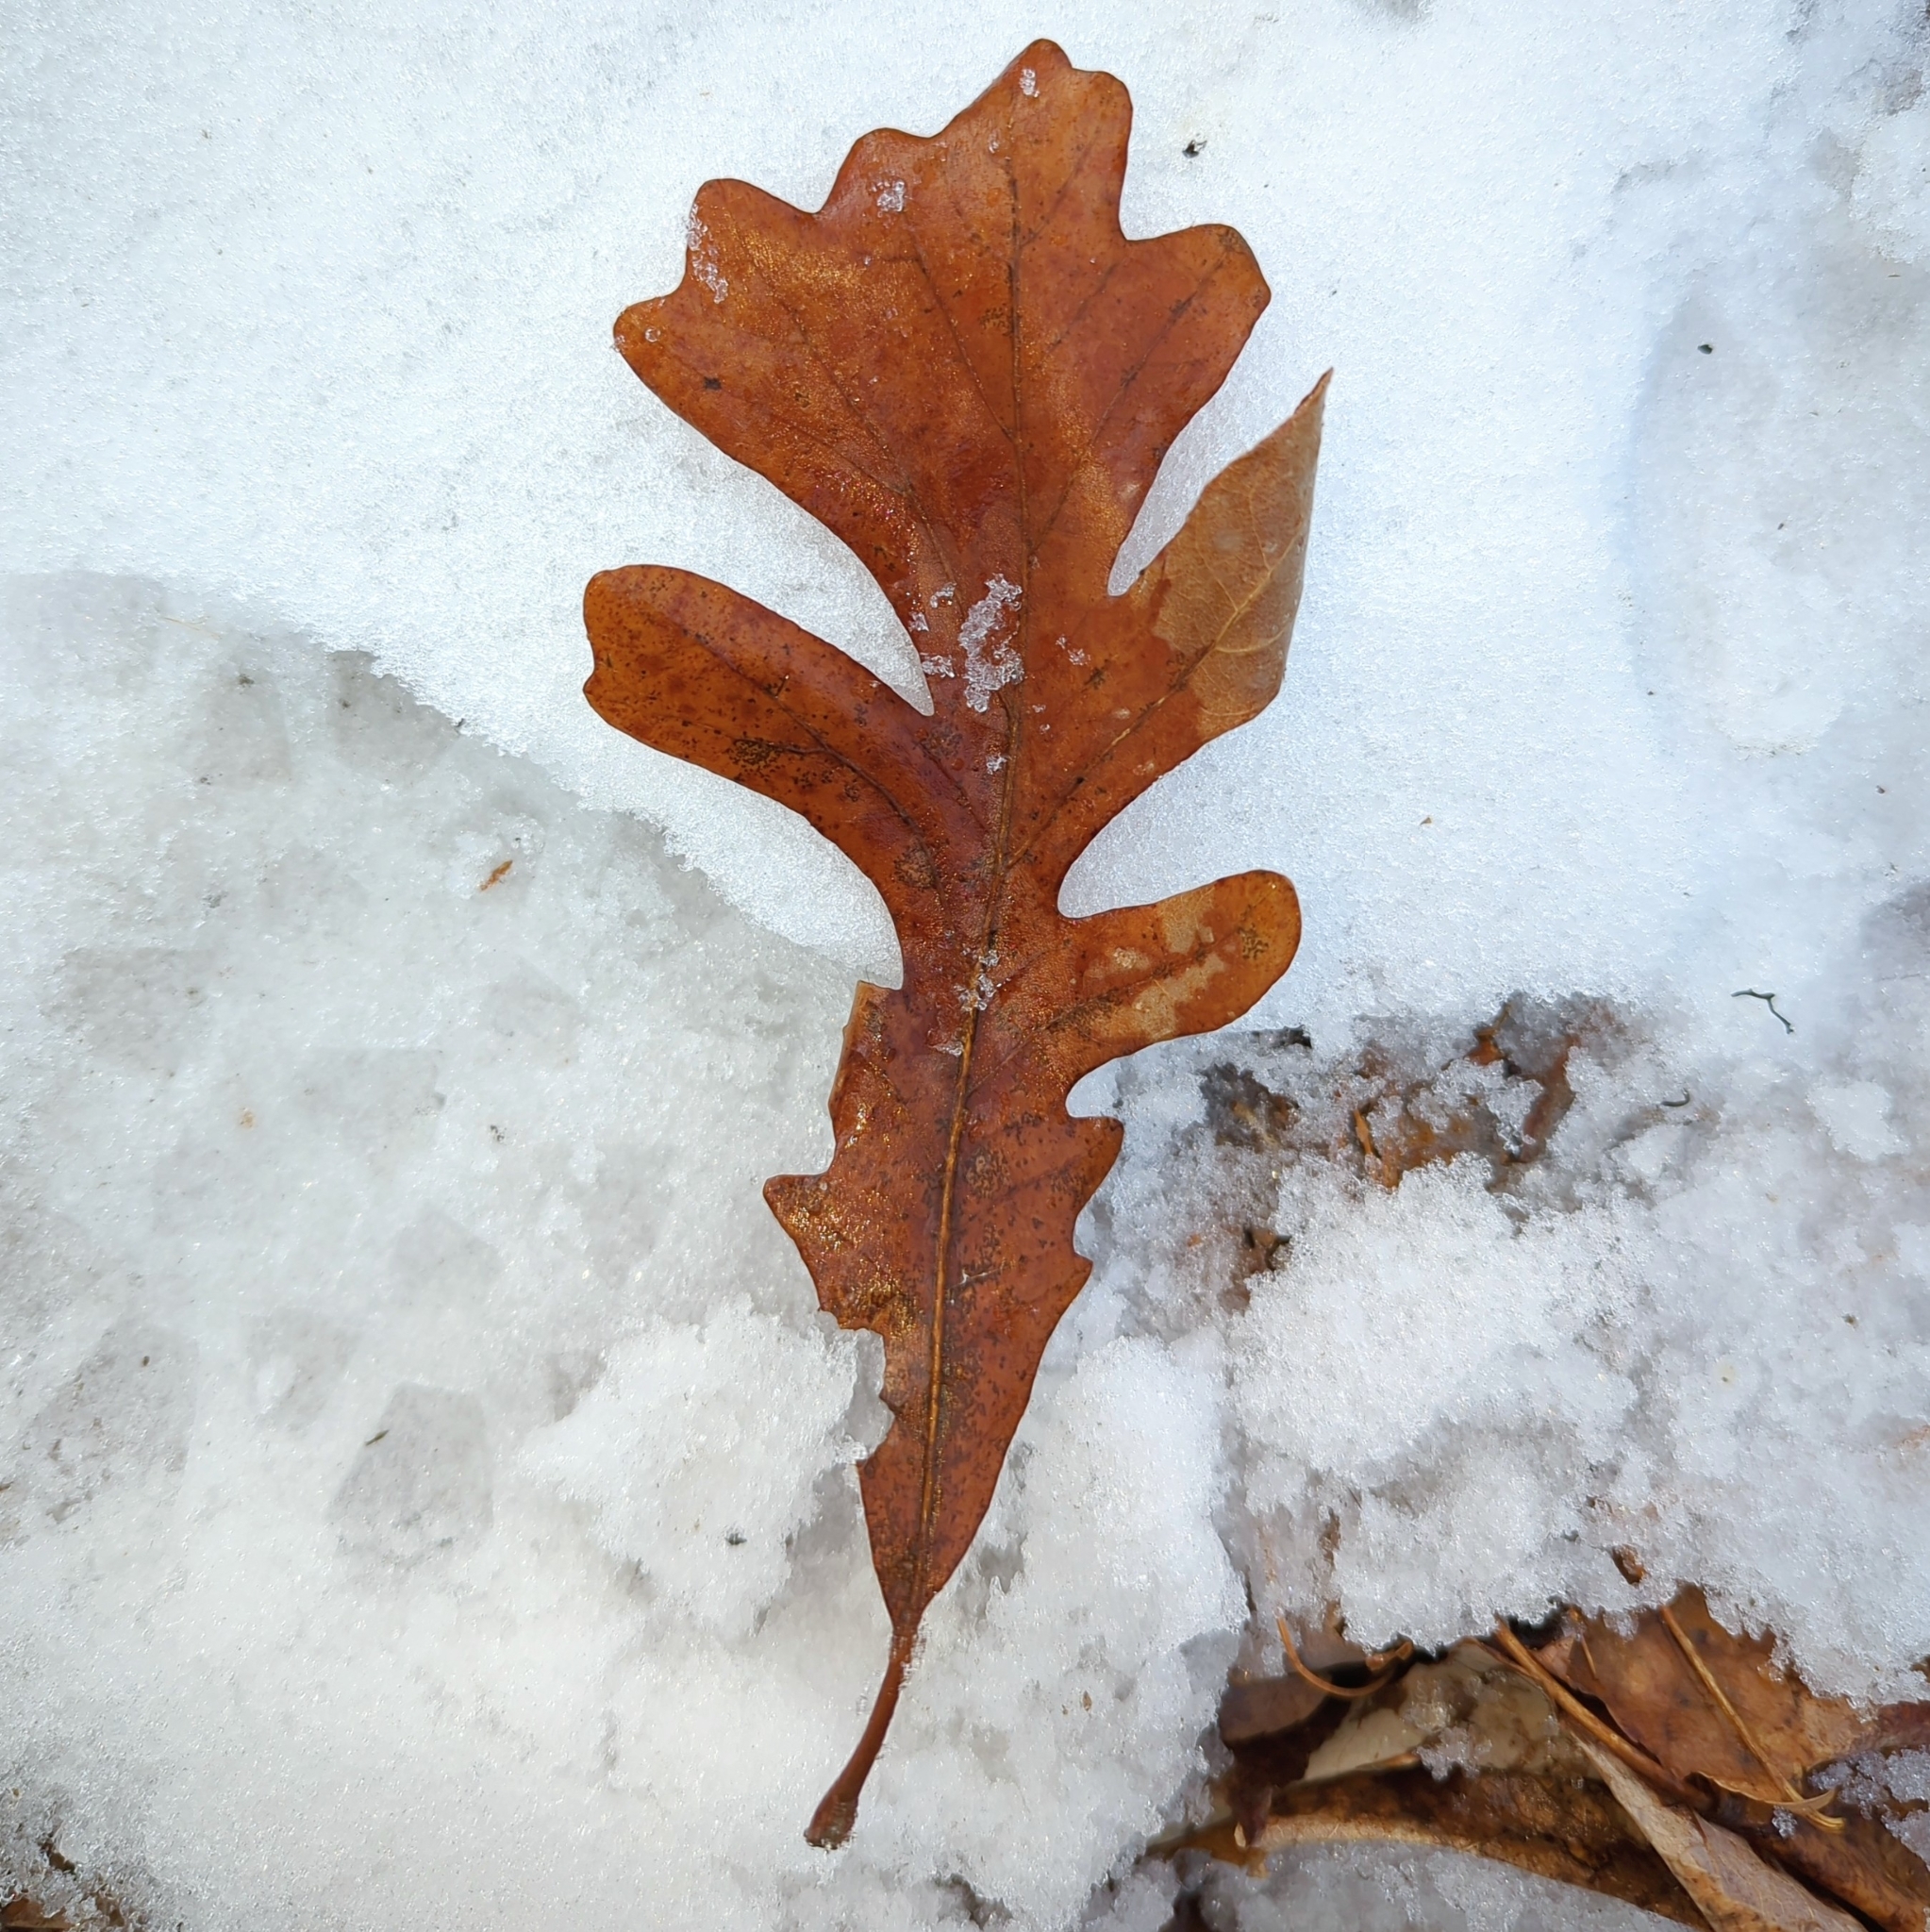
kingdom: Plantae
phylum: Tracheophyta
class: Magnoliopsida
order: Fagales
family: Fagaceae
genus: Quercus
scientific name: Quercus macrocarpa
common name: Bur oak
